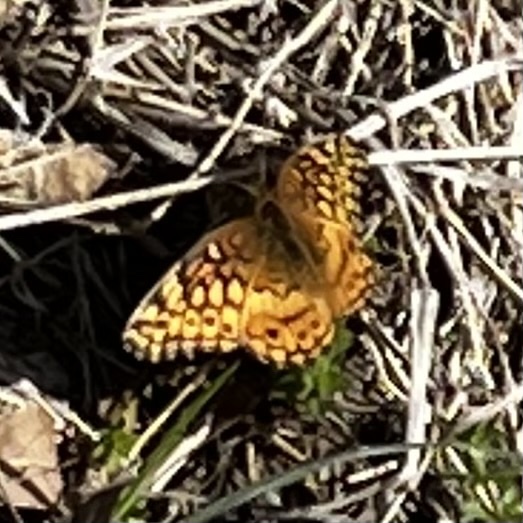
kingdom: Animalia
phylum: Arthropoda
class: Insecta
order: Lepidoptera
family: Nymphalidae
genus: Euptoieta
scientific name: Euptoieta claudia
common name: Variegated fritillary
